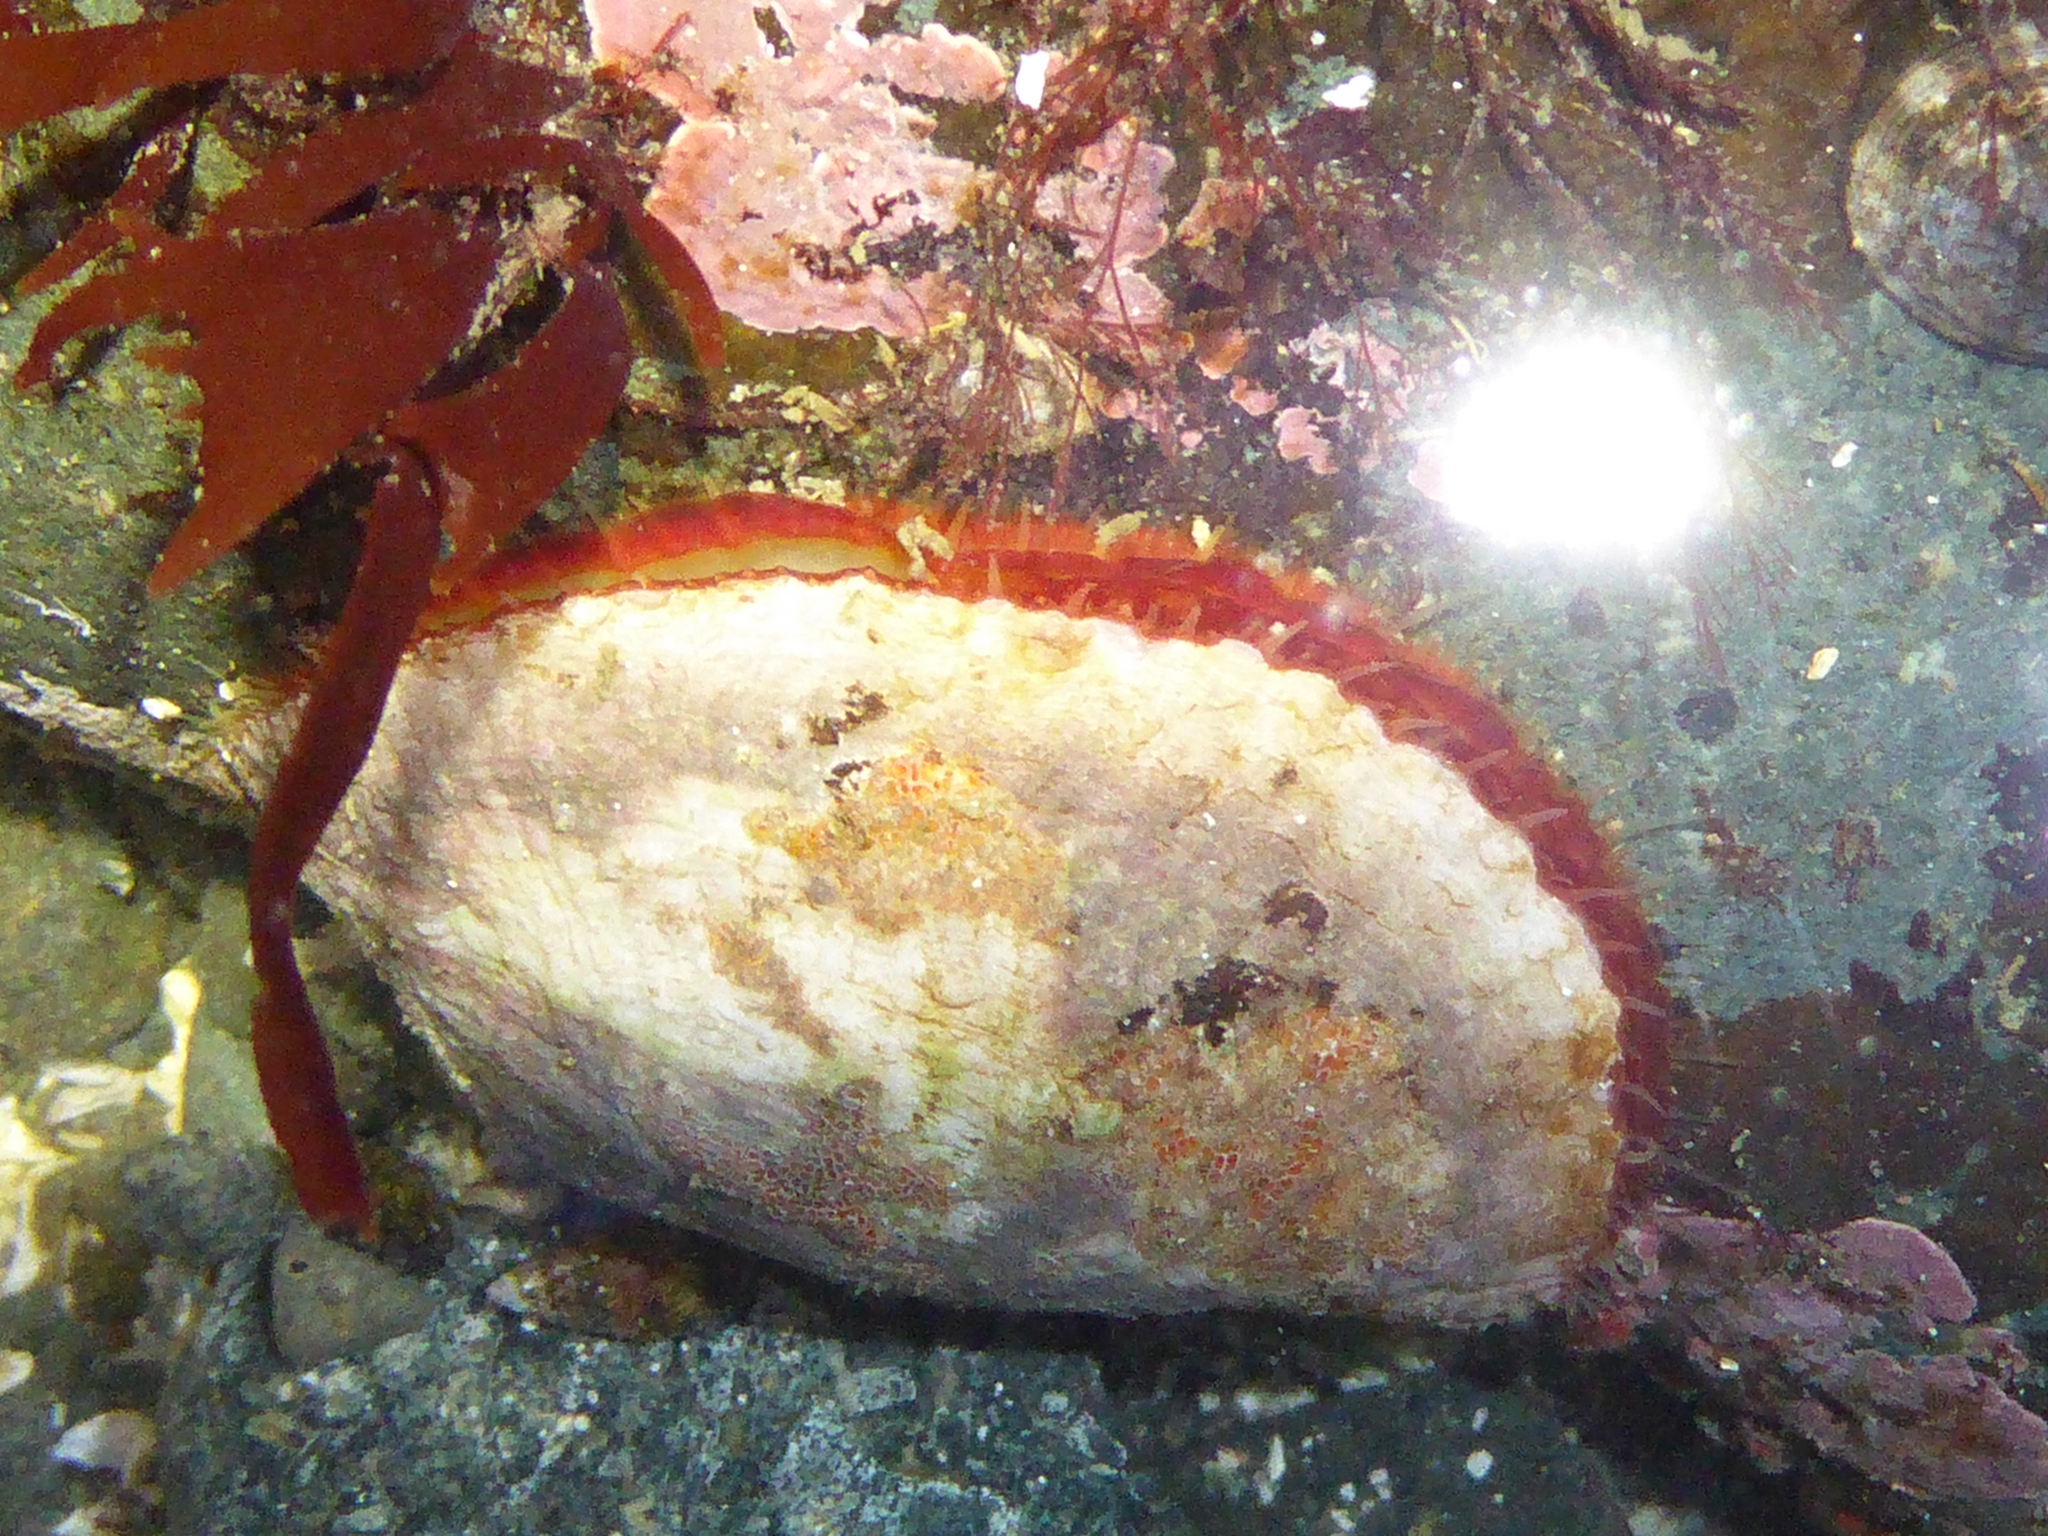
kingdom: Animalia
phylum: Mollusca
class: Bivalvia
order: Pectinida
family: Anomiidae
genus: Pododesmus
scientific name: Pododesmus macrochisma
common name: Alaska jingle
